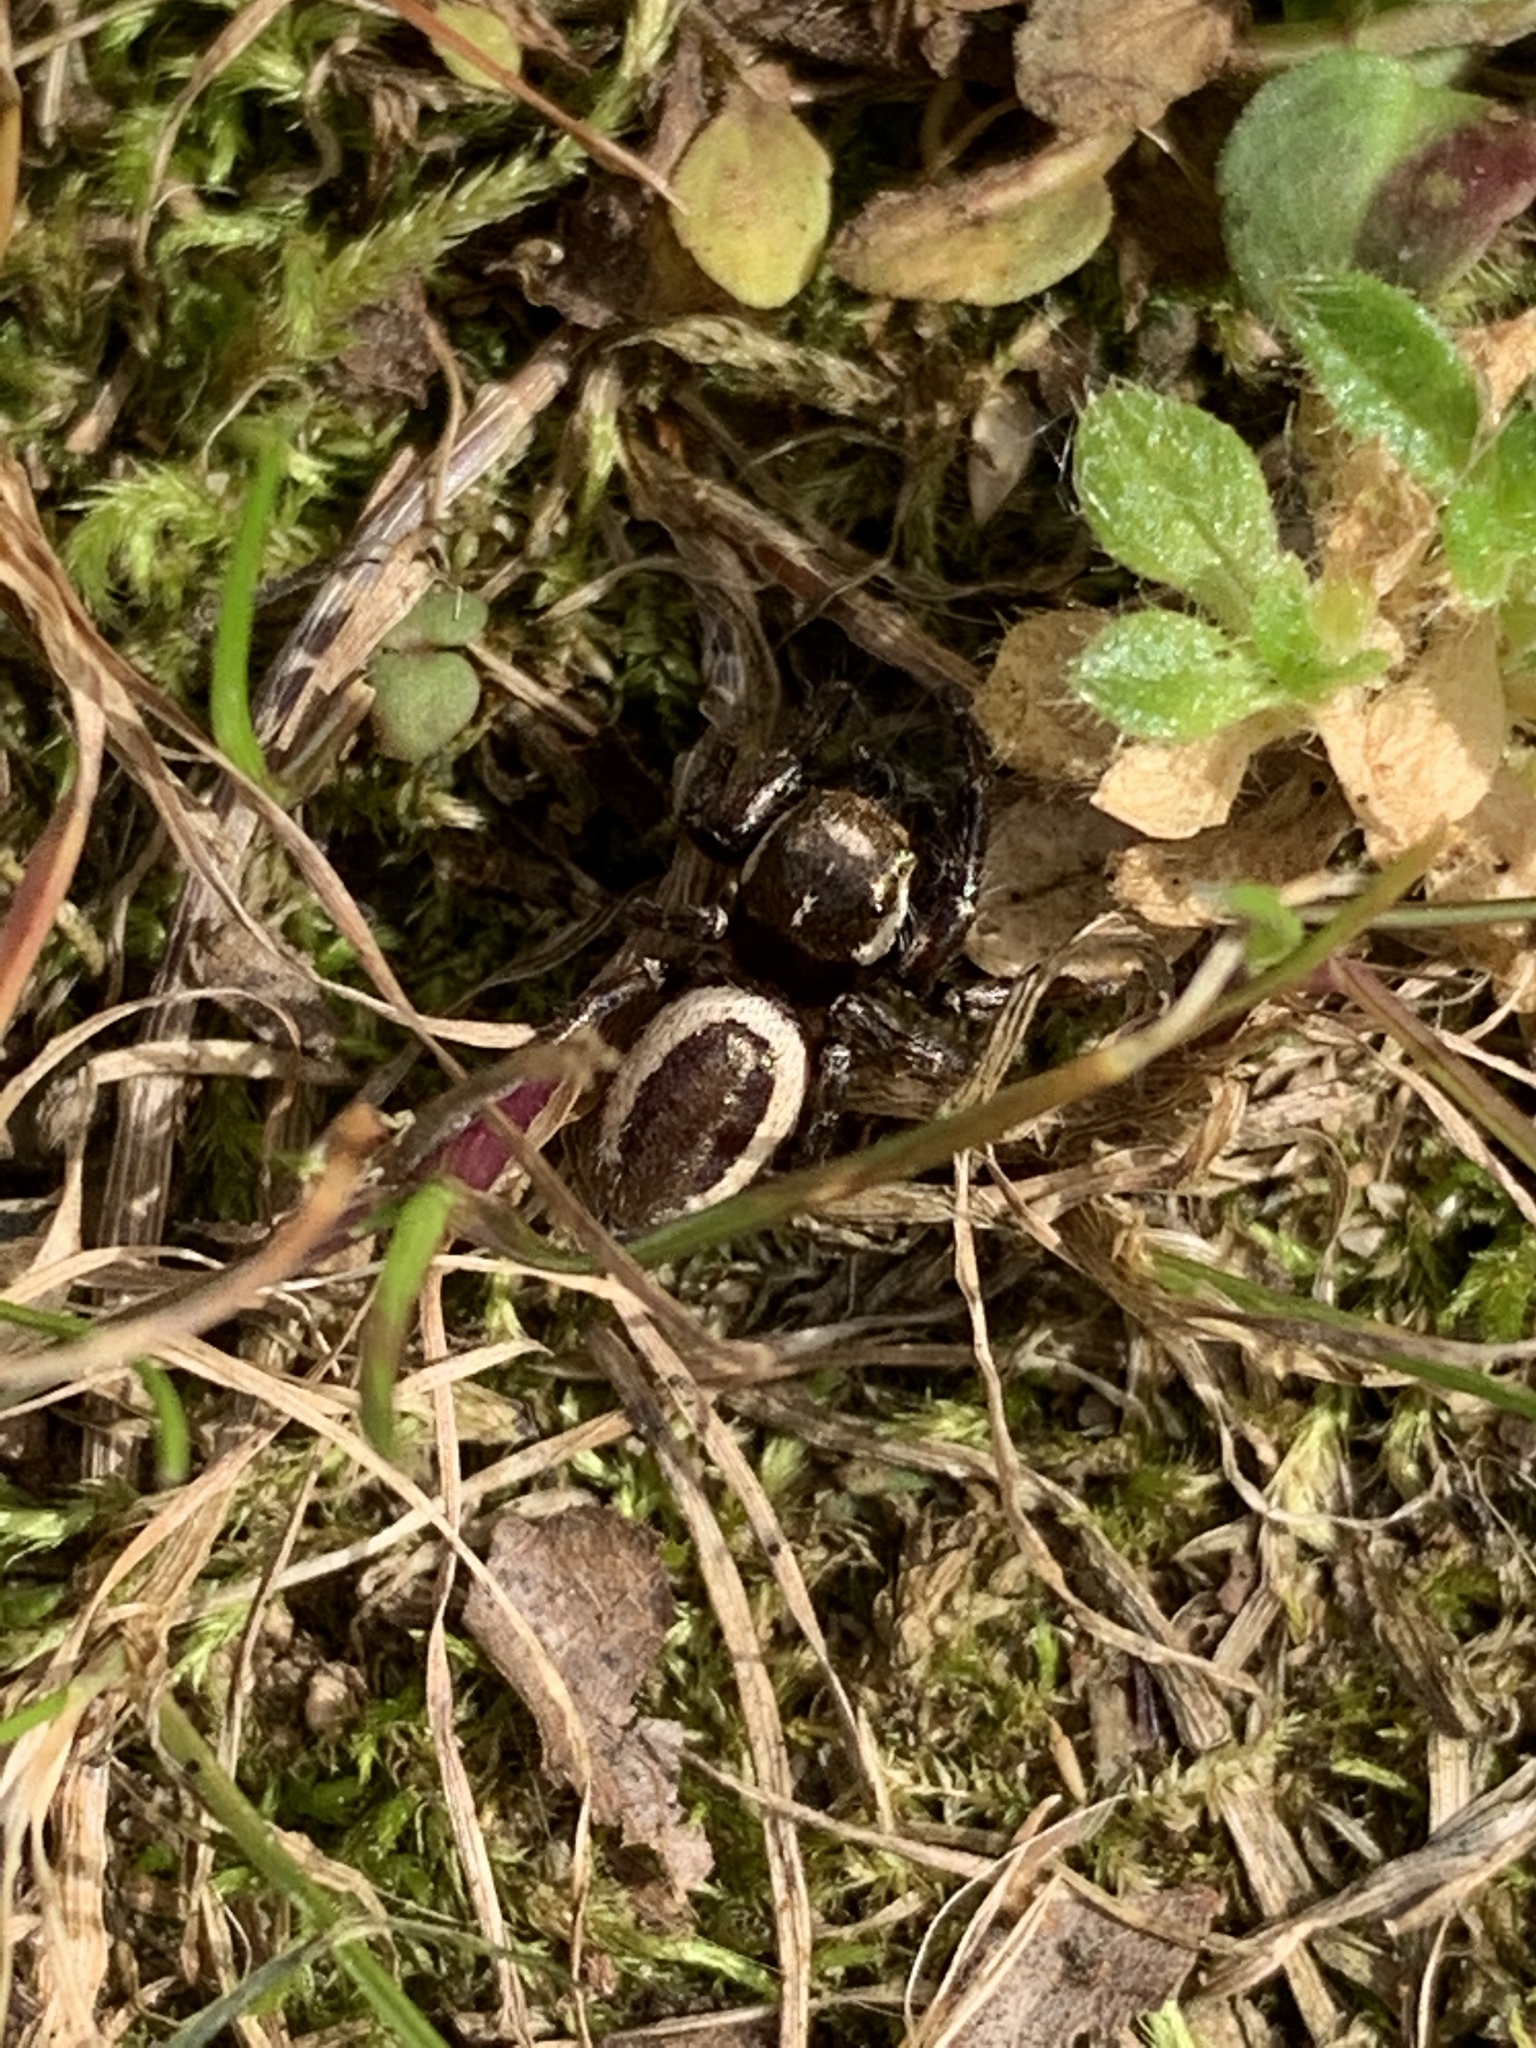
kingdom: Animalia
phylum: Arthropoda
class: Arachnida
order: Araneae
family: Salticidae
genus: Eris
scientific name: Eris militaris
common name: Bronze jumper
